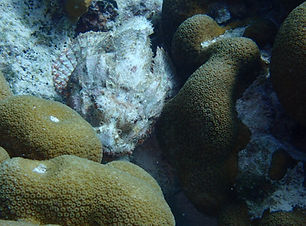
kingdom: Animalia
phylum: Chordata
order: Scorpaeniformes
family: Scorpaenidae
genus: Scorpaena
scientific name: Scorpaena plumieri
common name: Spotted scorpionfish
